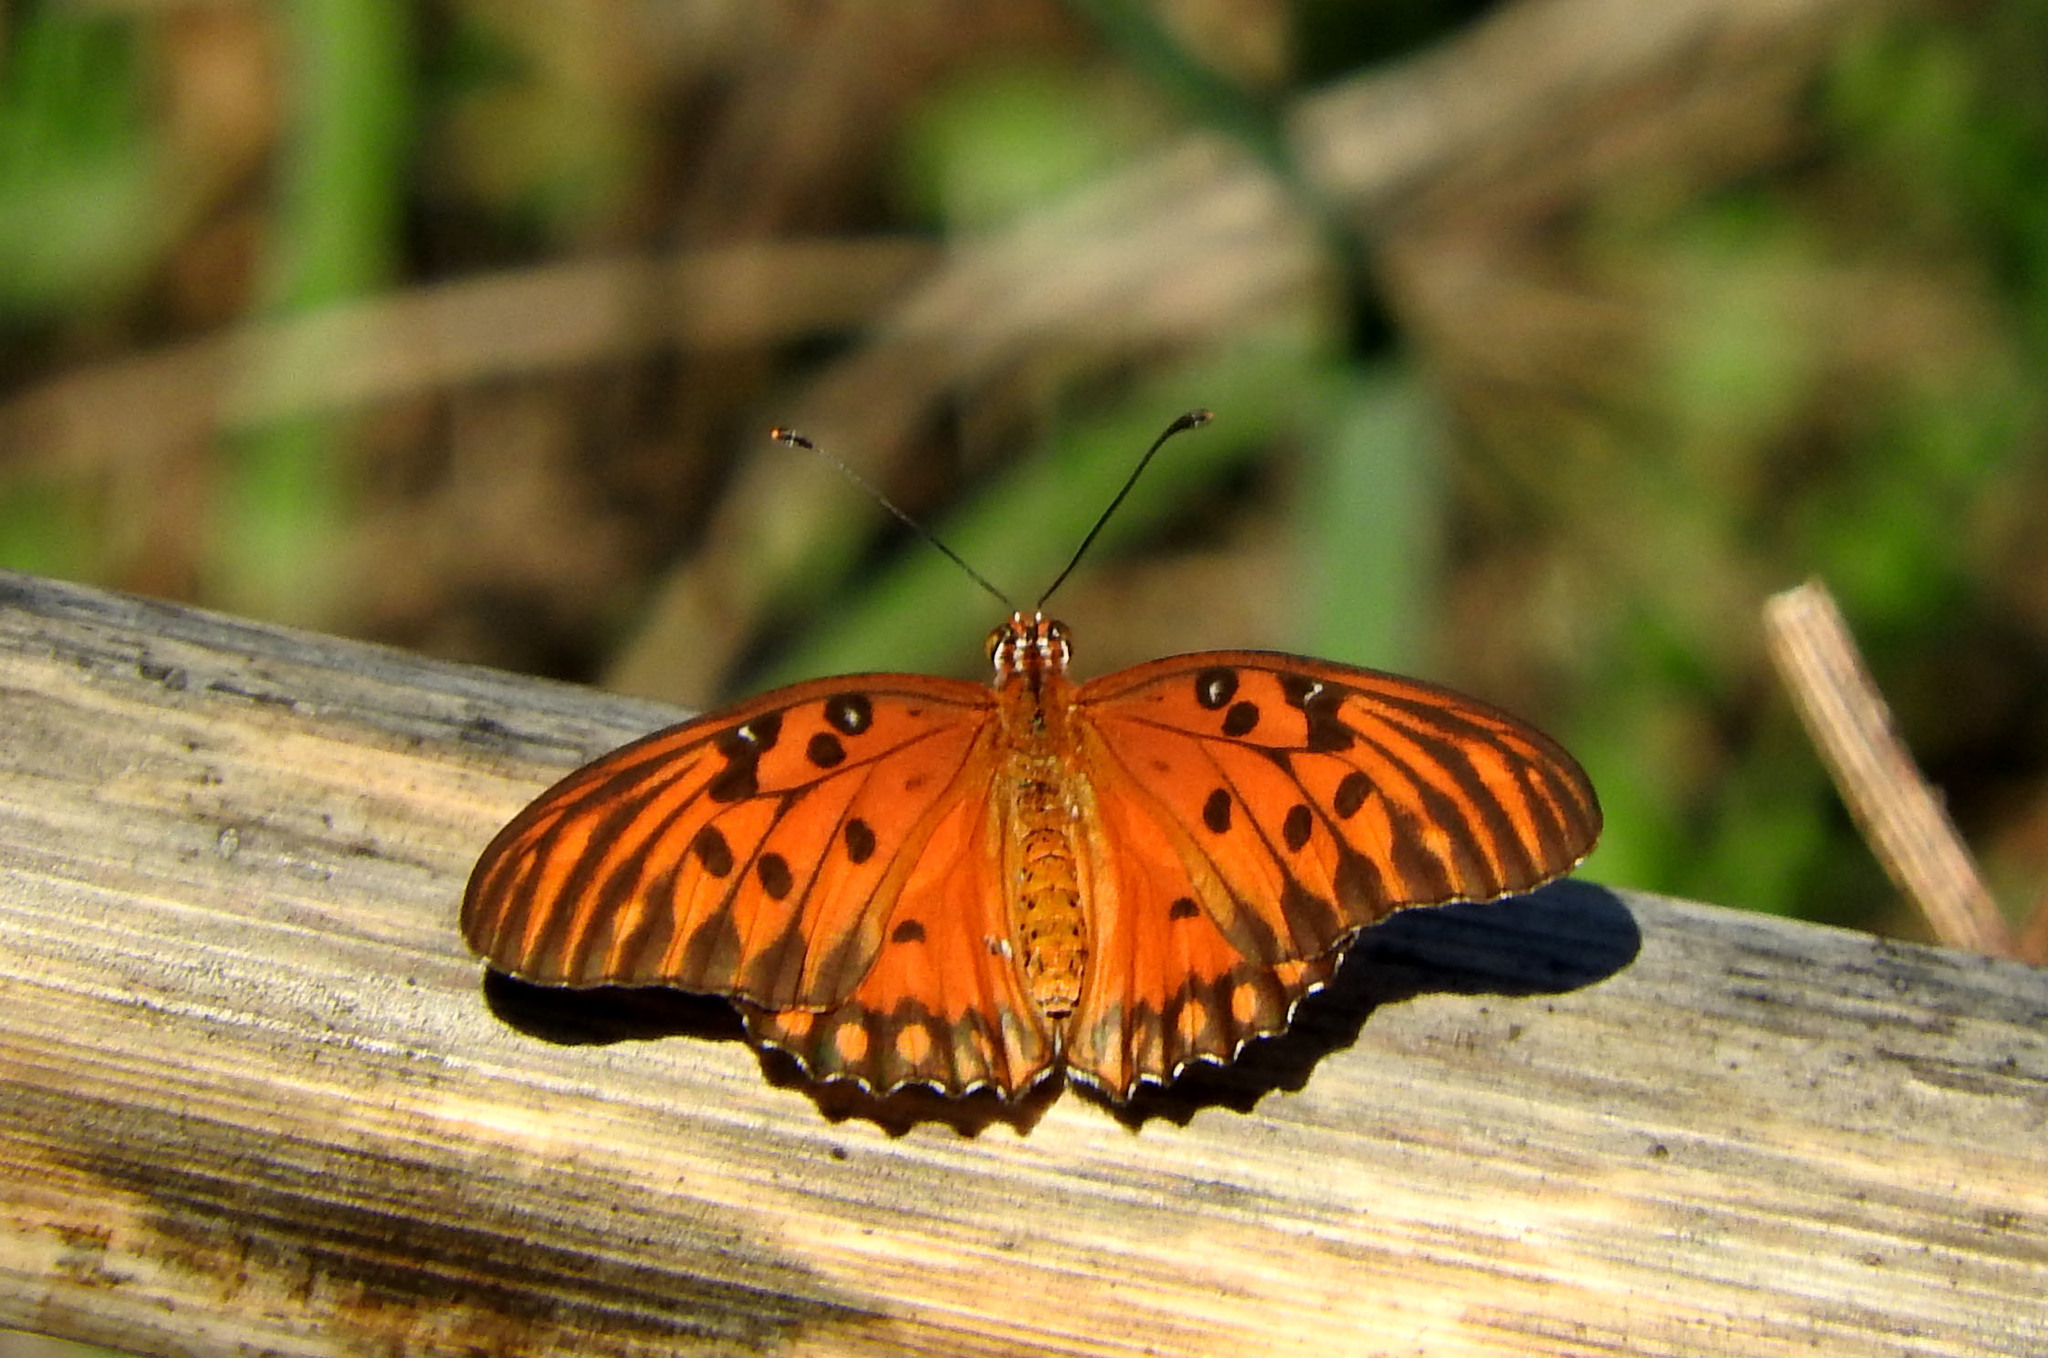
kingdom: Animalia
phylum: Arthropoda
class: Insecta
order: Lepidoptera
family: Nymphalidae
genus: Dione
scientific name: Dione vanillae
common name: Gulf fritillary
